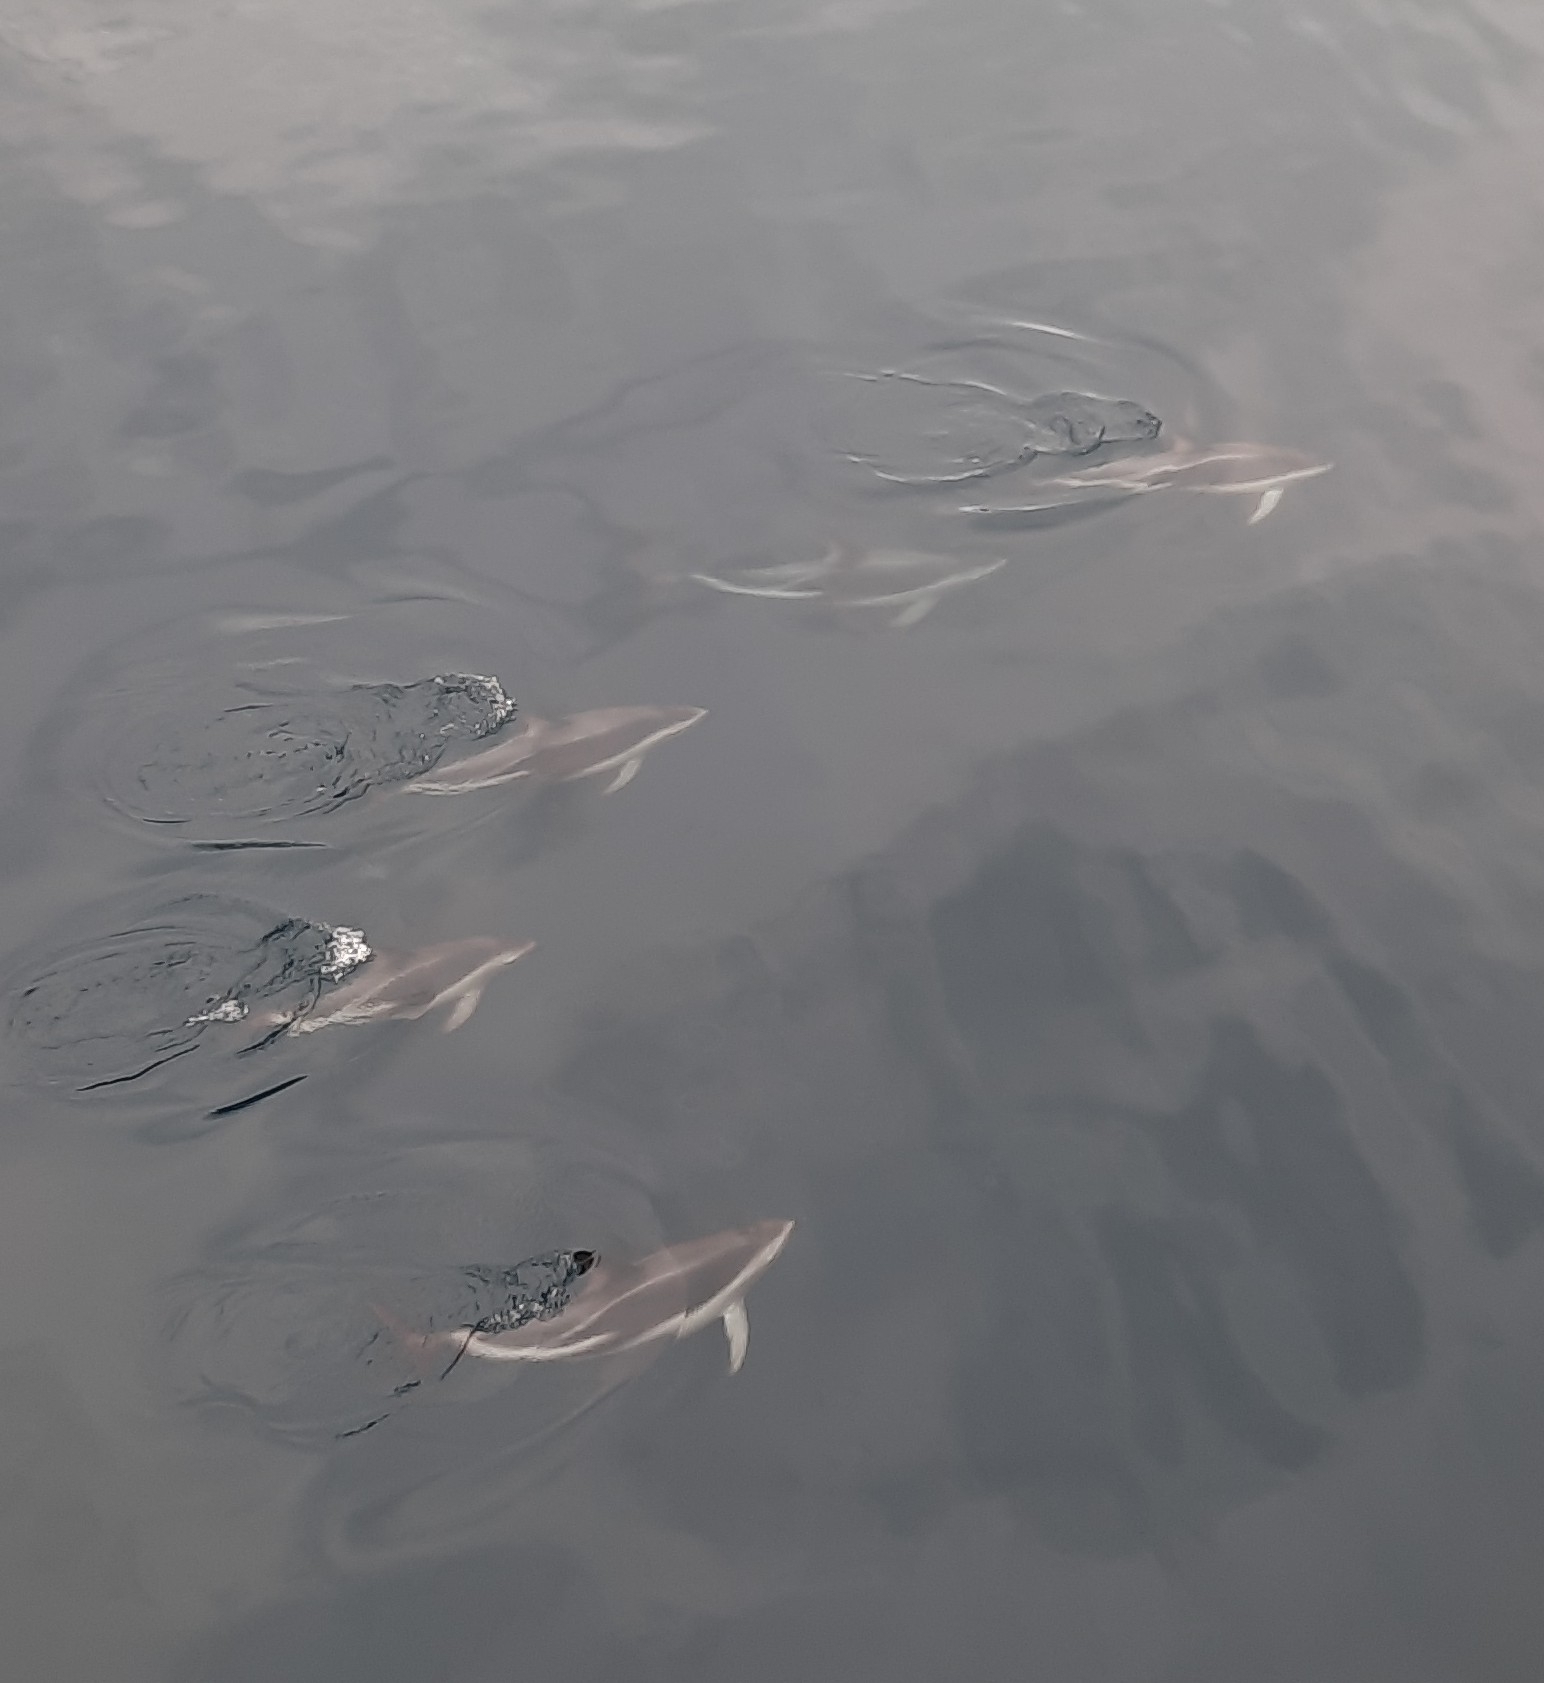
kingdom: Animalia
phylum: Chordata
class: Mammalia
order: Cetacea
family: Delphinidae
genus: Lagenorhynchus
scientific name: Lagenorhynchus obscurus
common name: Dusky dolphin
